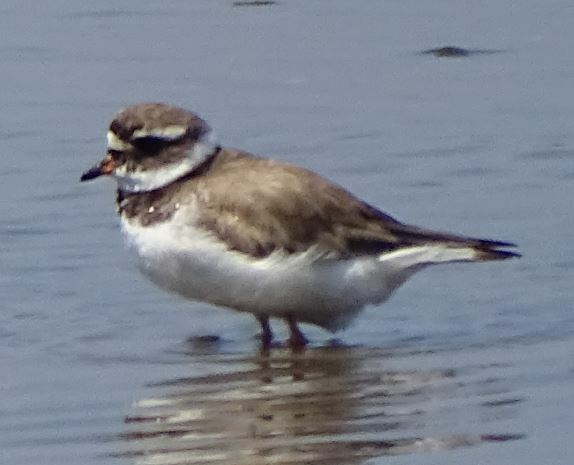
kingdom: Animalia
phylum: Chordata
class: Aves
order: Charadriiformes
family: Charadriidae
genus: Charadrius
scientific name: Charadrius hiaticula
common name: Common ringed plover
